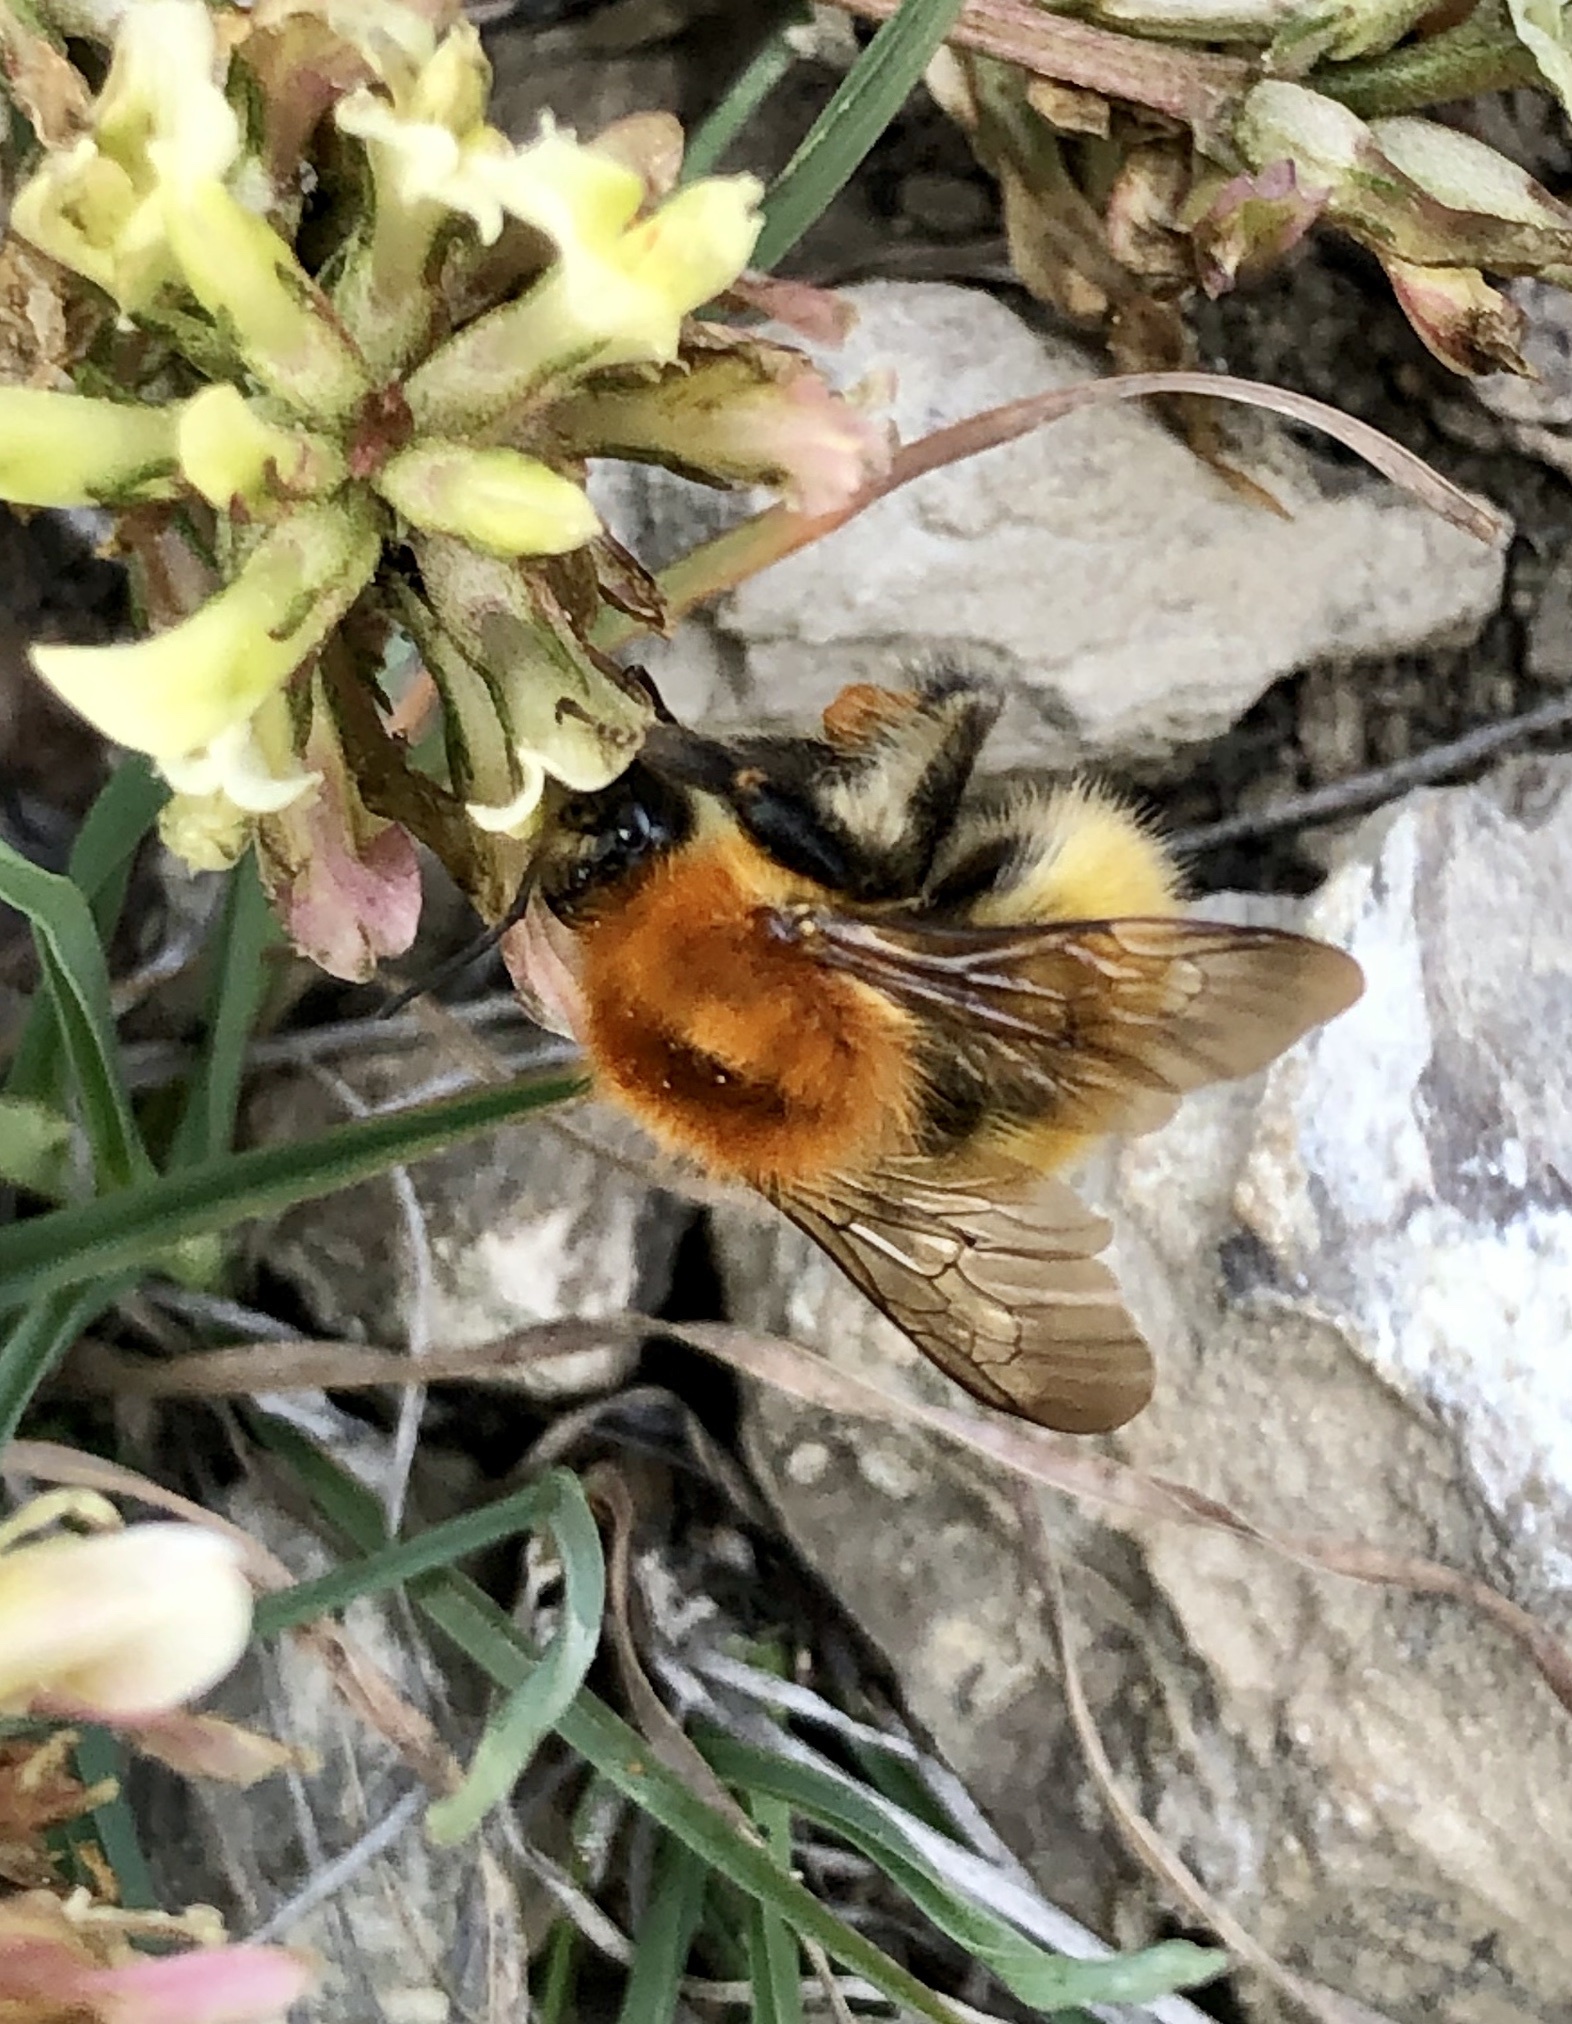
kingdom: Animalia
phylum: Arthropoda
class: Insecta
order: Hymenoptera
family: Apidae
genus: Bombus
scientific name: Bombus pascuorum
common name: Common carder bee
